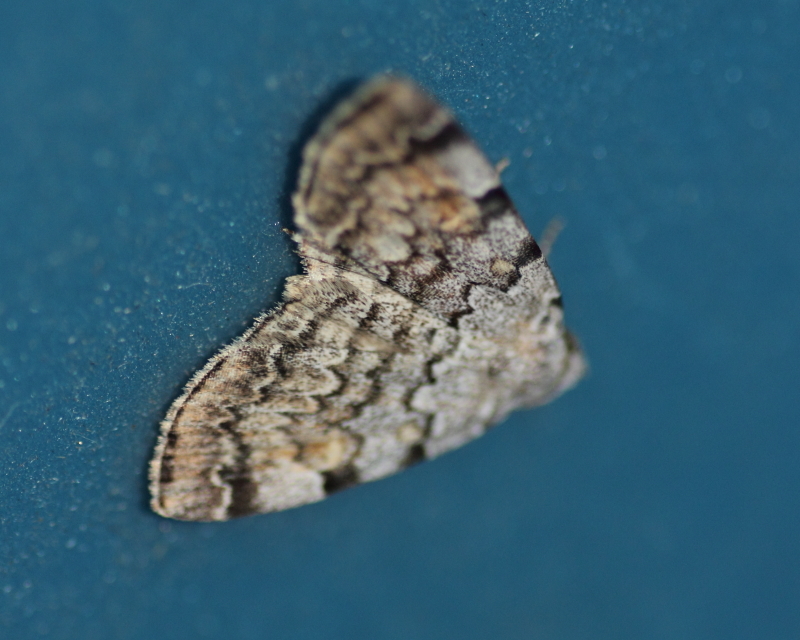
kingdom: Animalia
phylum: Arthropoda
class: Insecta
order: Lepidoptera
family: Erebidae
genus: Idia
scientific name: Idia americalis
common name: American idia moth
